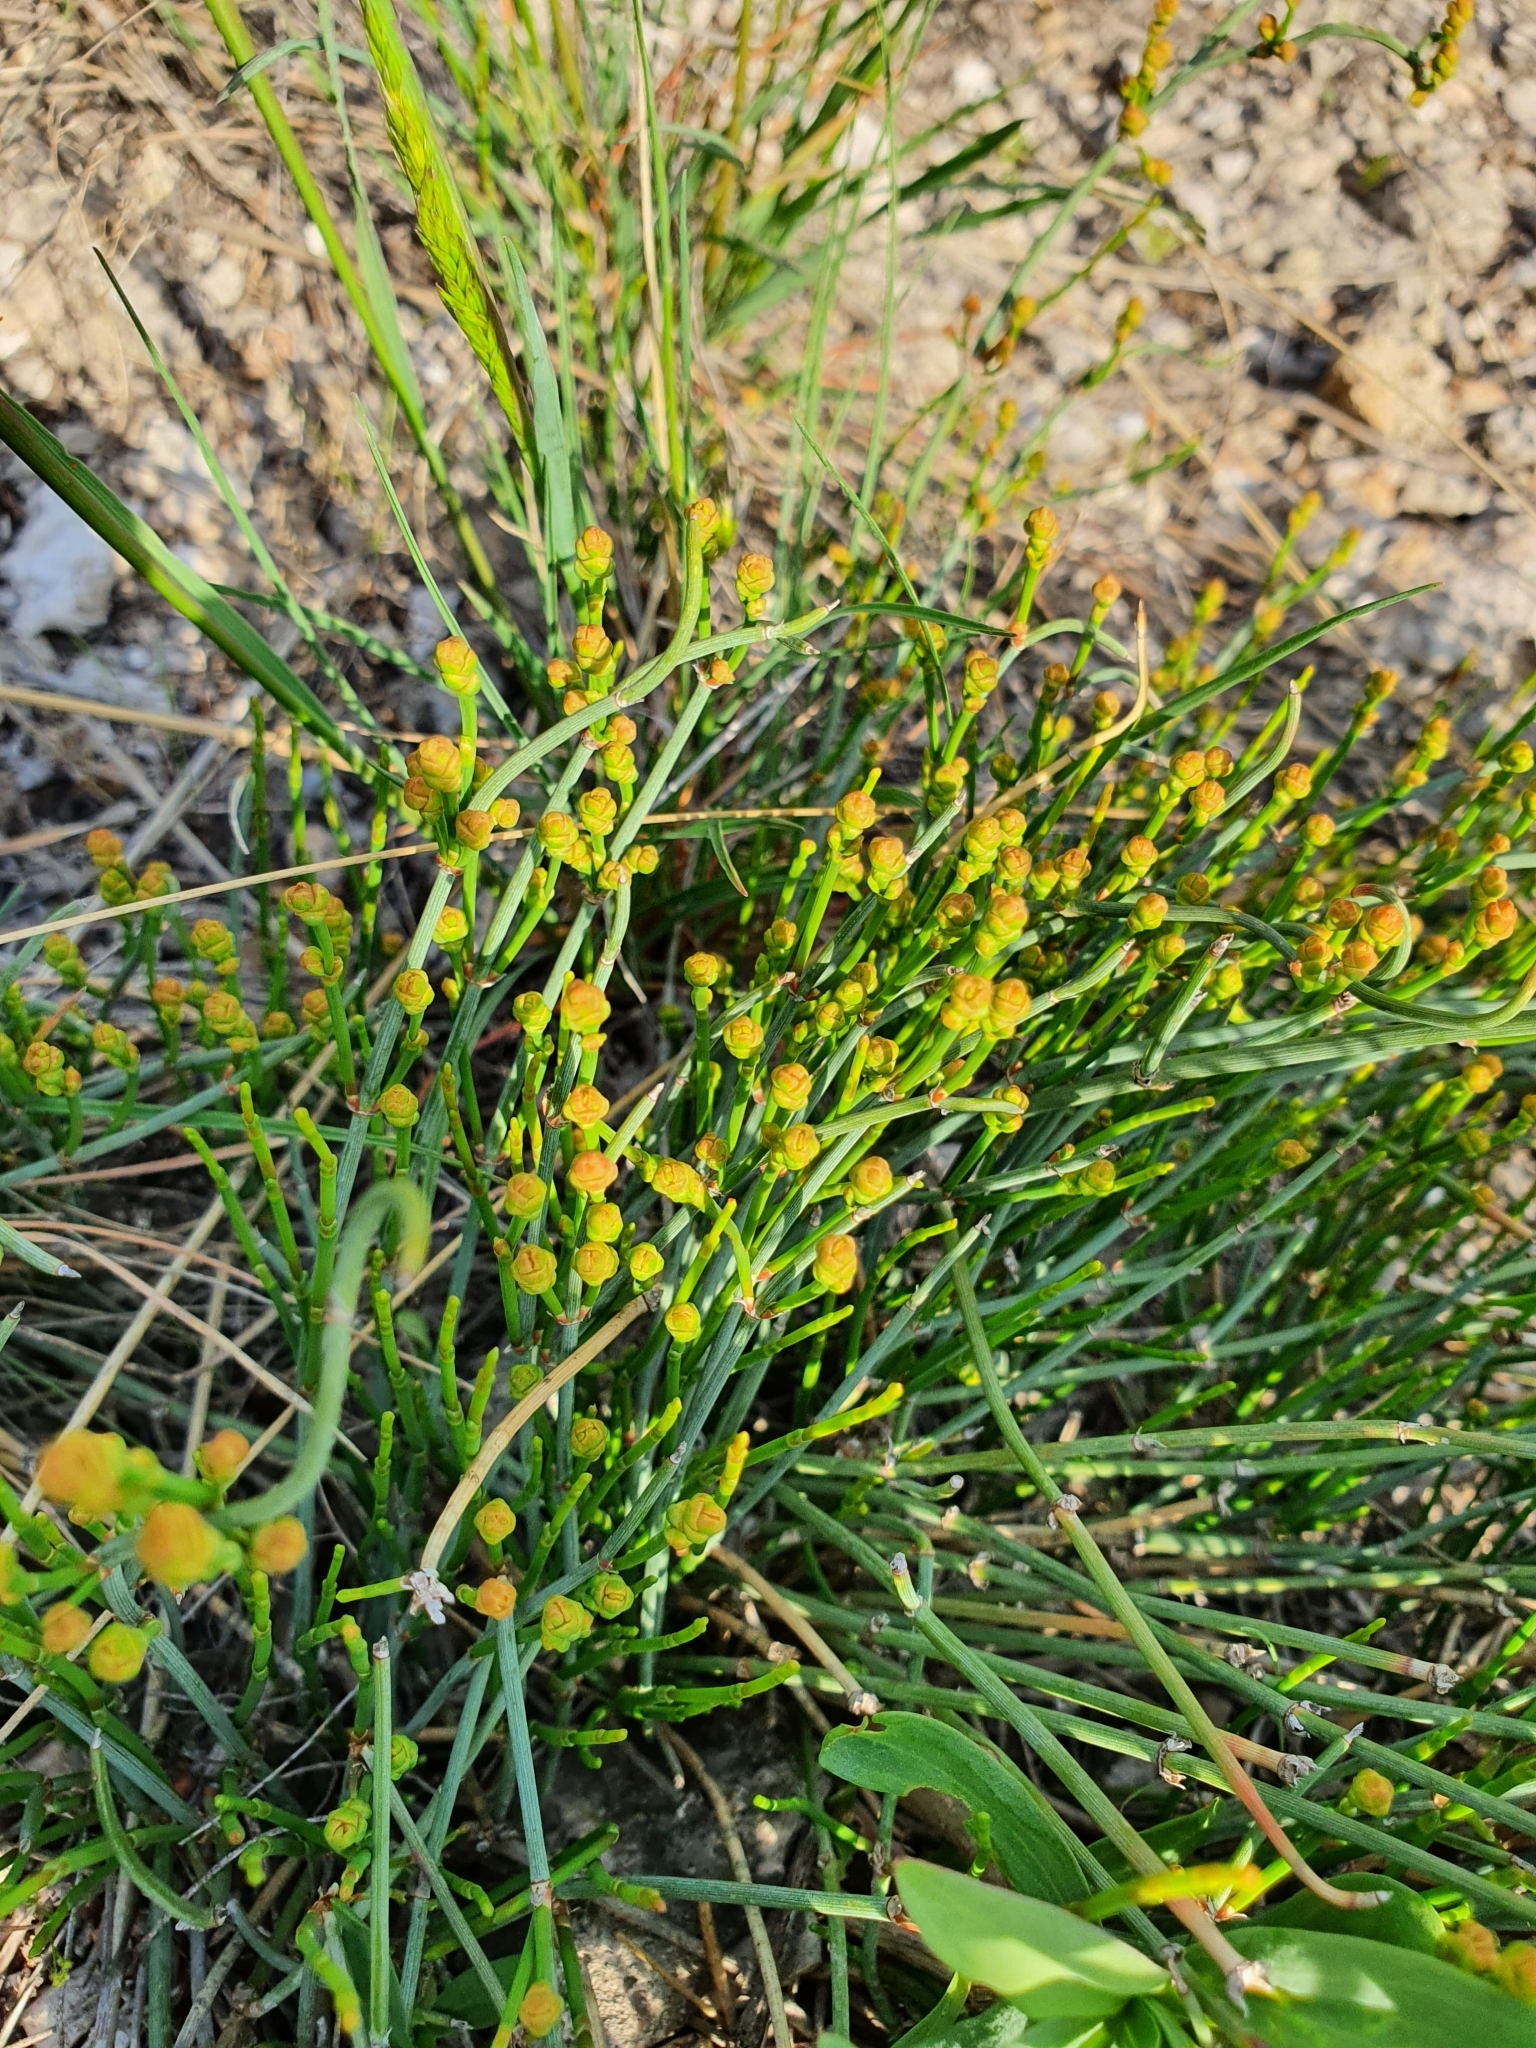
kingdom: Plantae
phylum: Tracheophyta
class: Gnetopsida
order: Ephedrales
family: Ephedraceae
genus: Ephedra
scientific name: Ephedra distachya
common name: Sea grape
